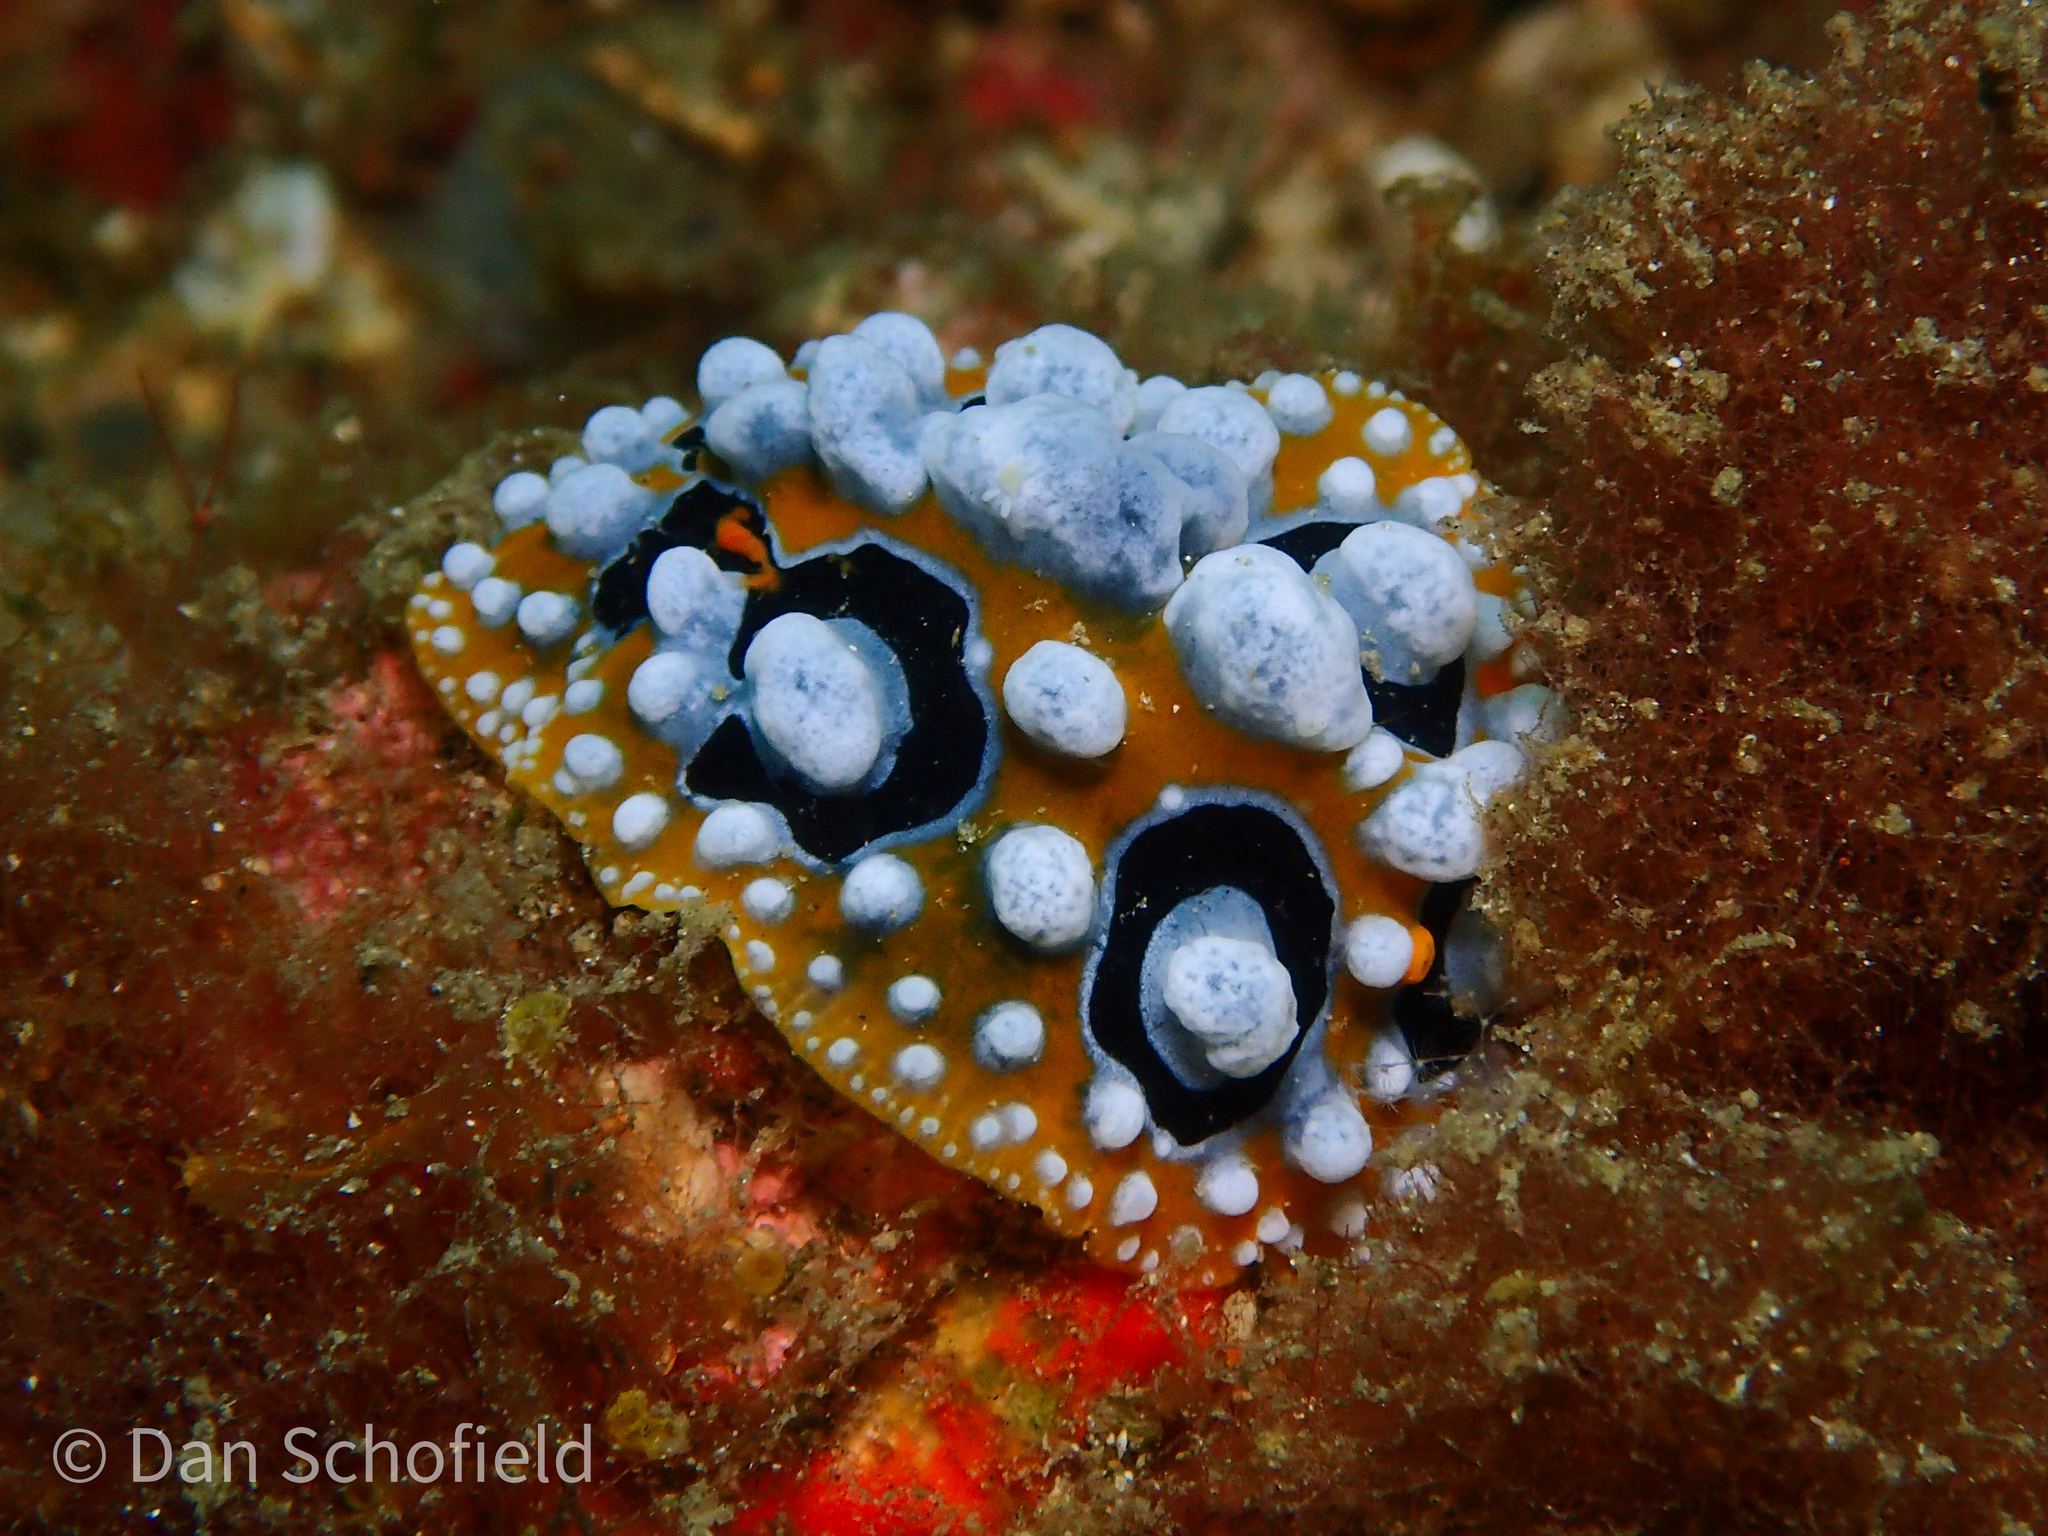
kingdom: Animalia
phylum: Mollusca
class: Gastropoda
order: Nudibranchia
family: Phyllidiidae
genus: Phyllidia
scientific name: Phyllidia ocellata
